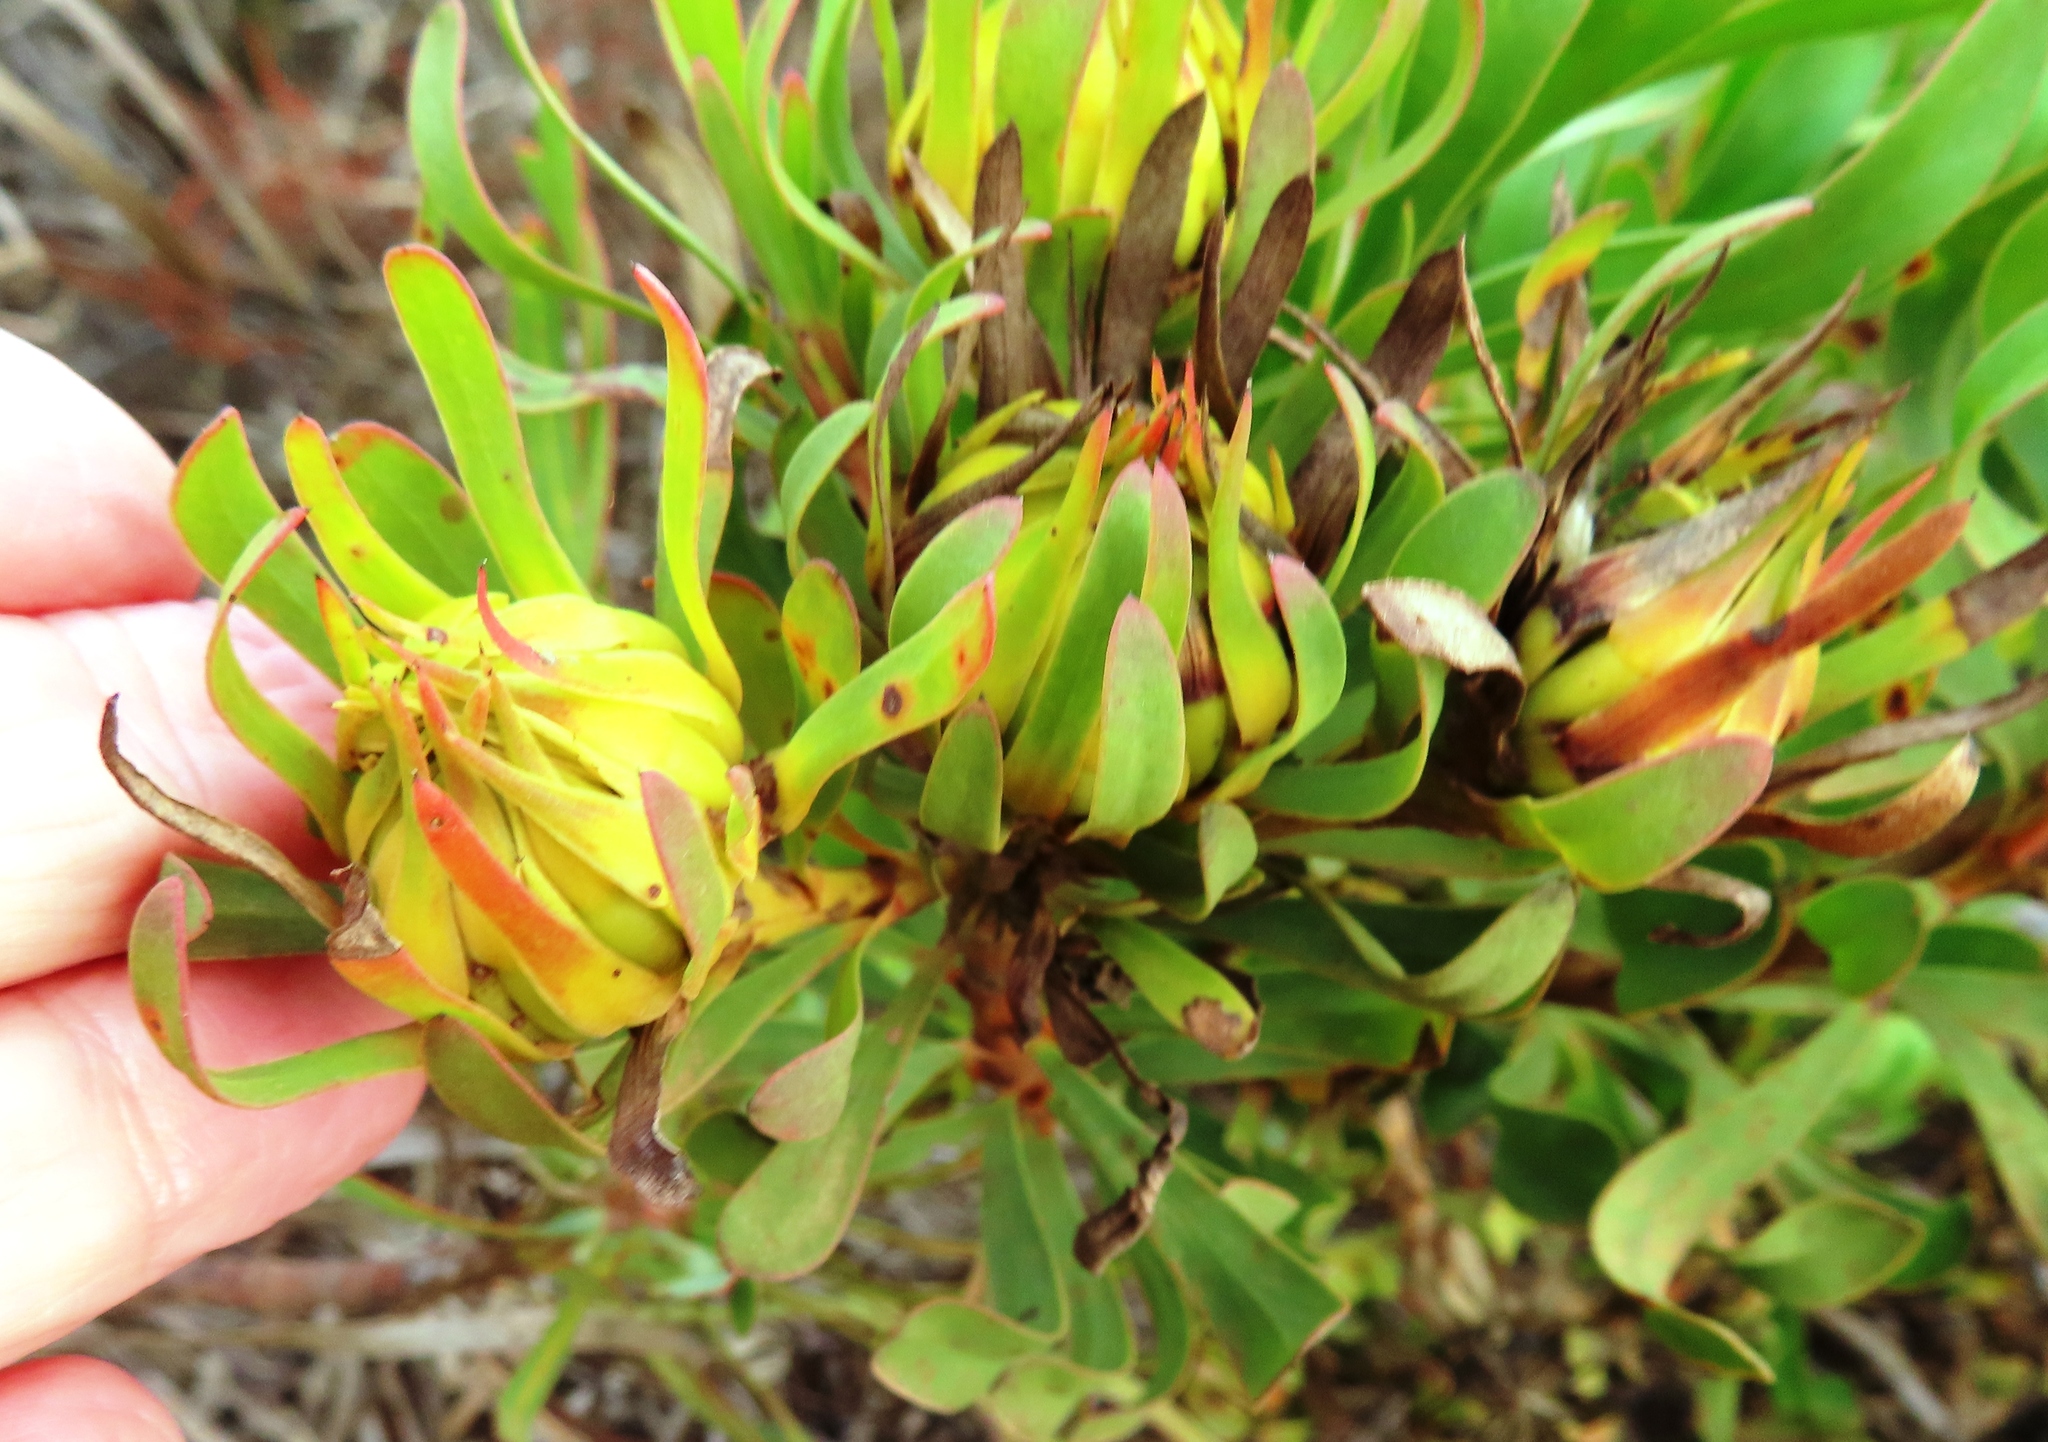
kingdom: Plantae
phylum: Tracheophyta
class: Magnoliopsida
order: Proteales
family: Proteaceae
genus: Aulax
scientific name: Aulax umbellata
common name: Broad-leaf featherbush
